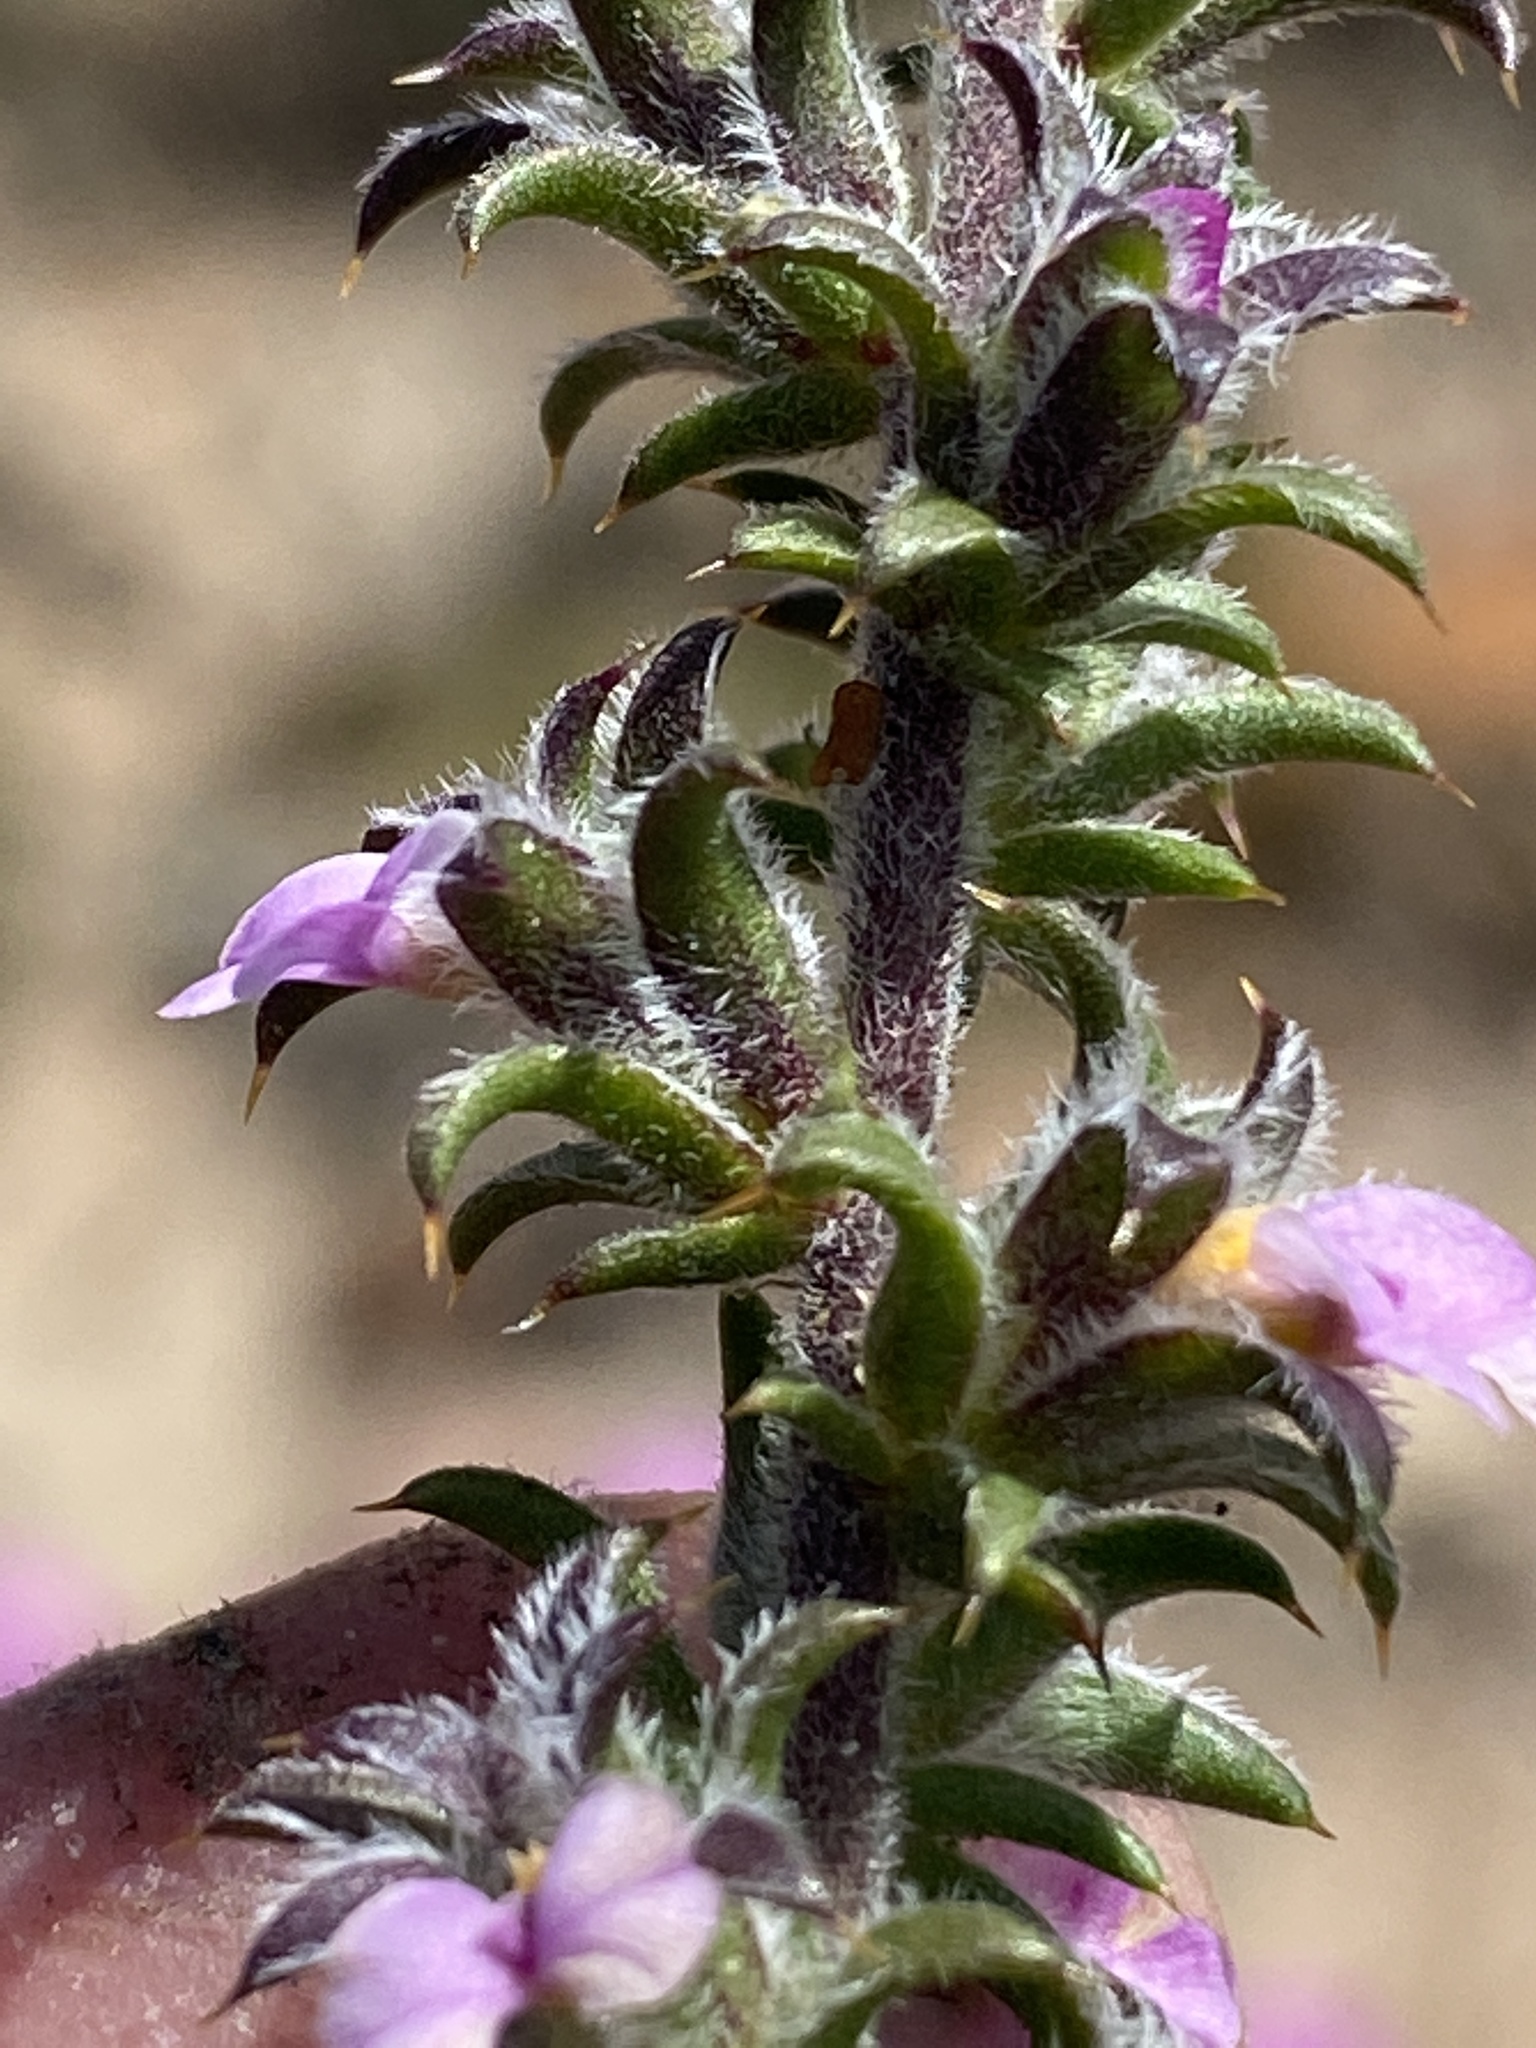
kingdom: Plantae
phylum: Tracheophyta
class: Magnoliopsida
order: Fabales
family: Polygalaceae
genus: Muraltia
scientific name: Muraltia squarrosa
